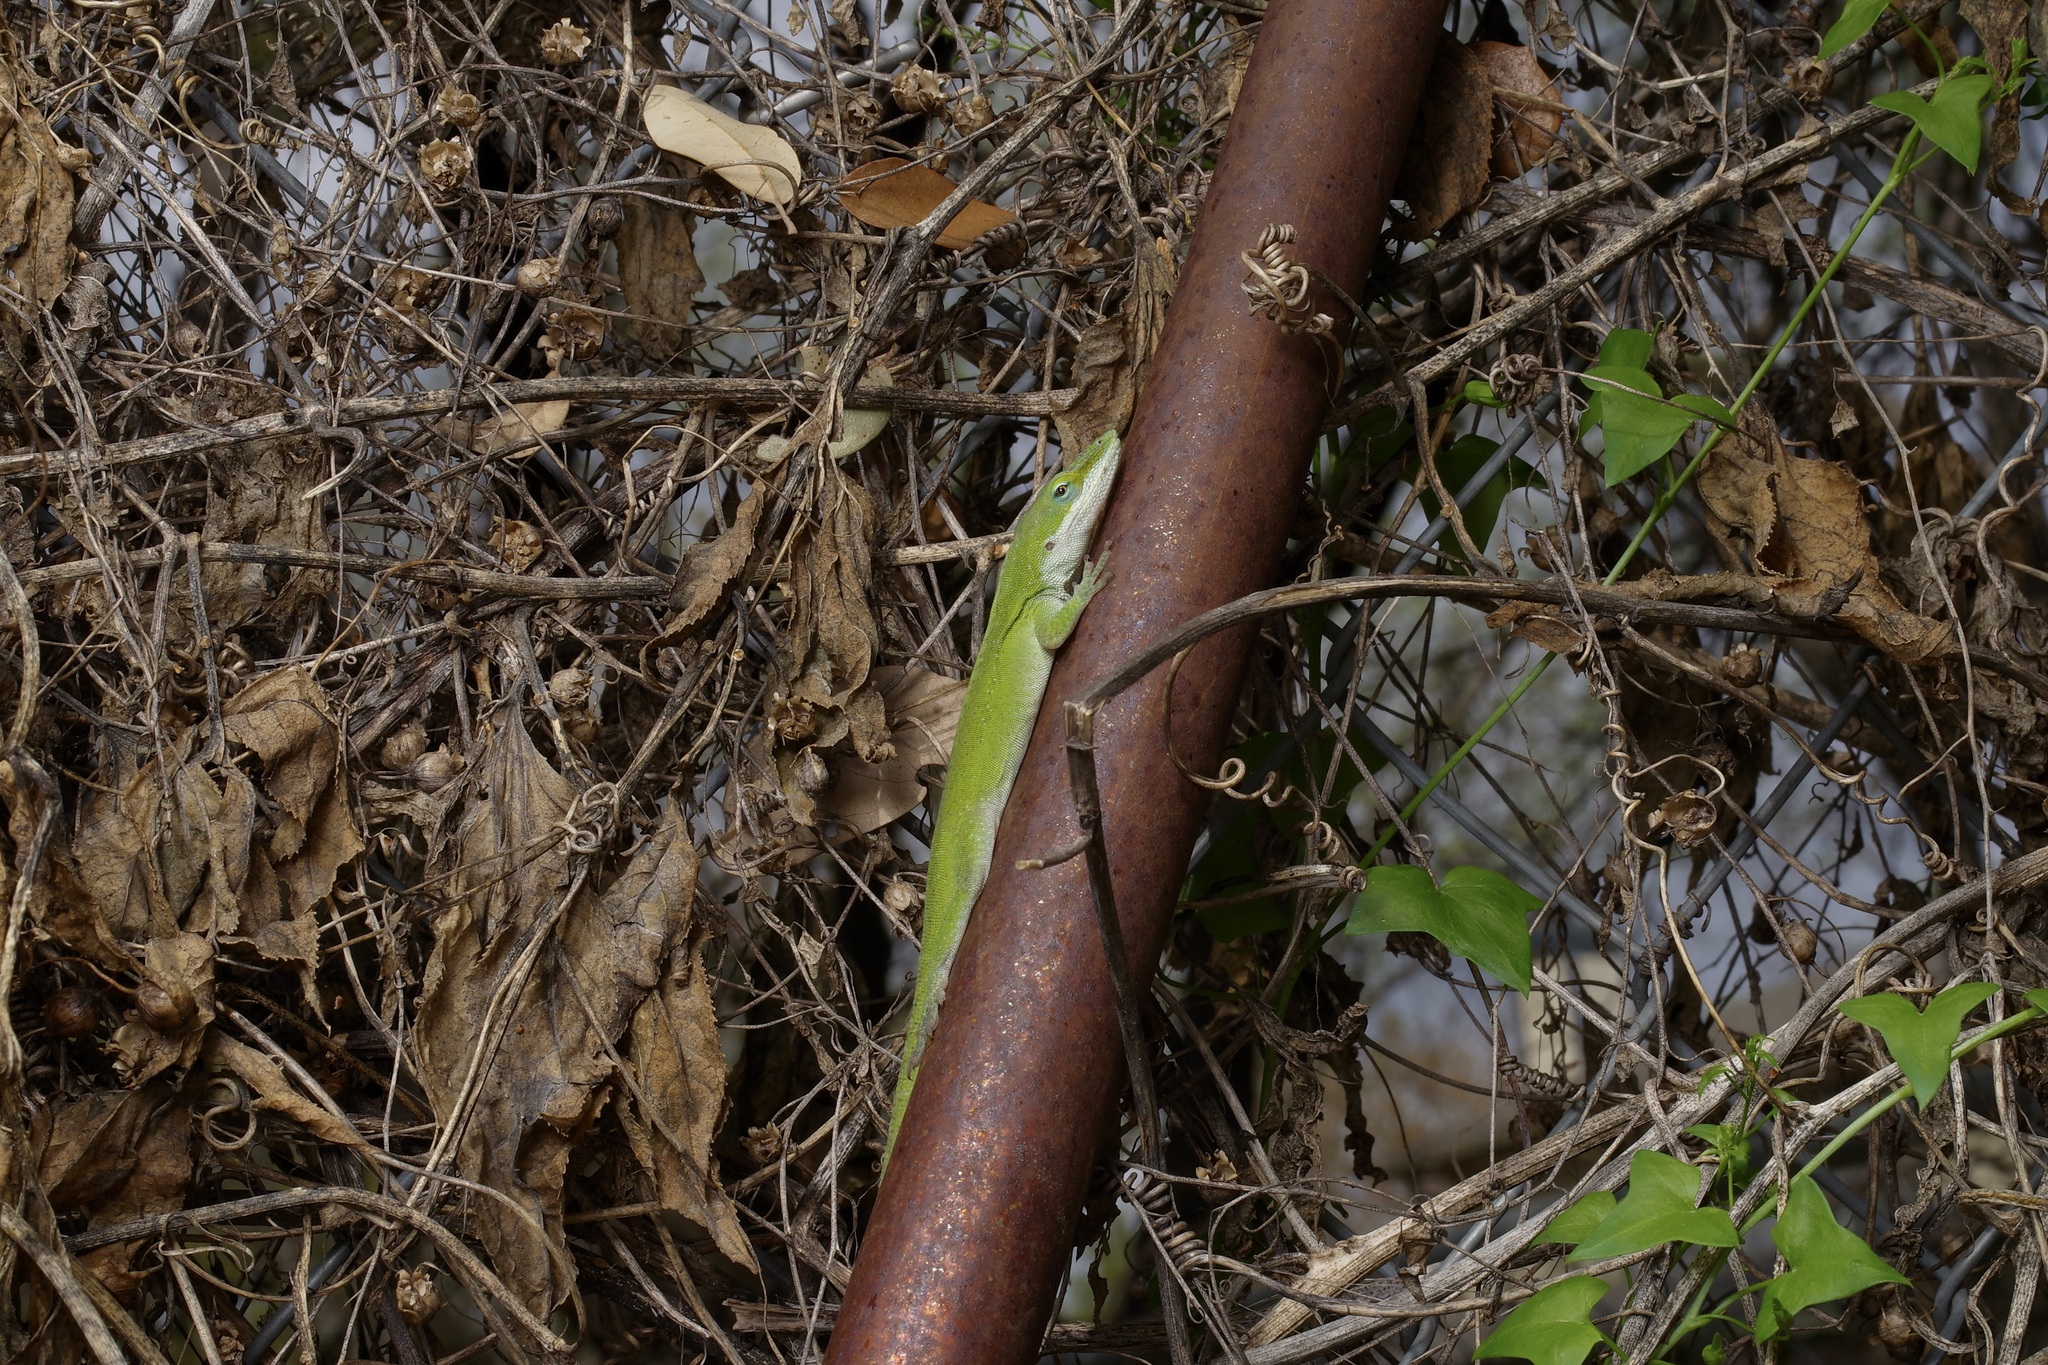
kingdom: Animalia
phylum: Chordata
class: Squamata
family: Dactyloidae
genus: Anolis
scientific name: Anolis carolinensis
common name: Green anole
